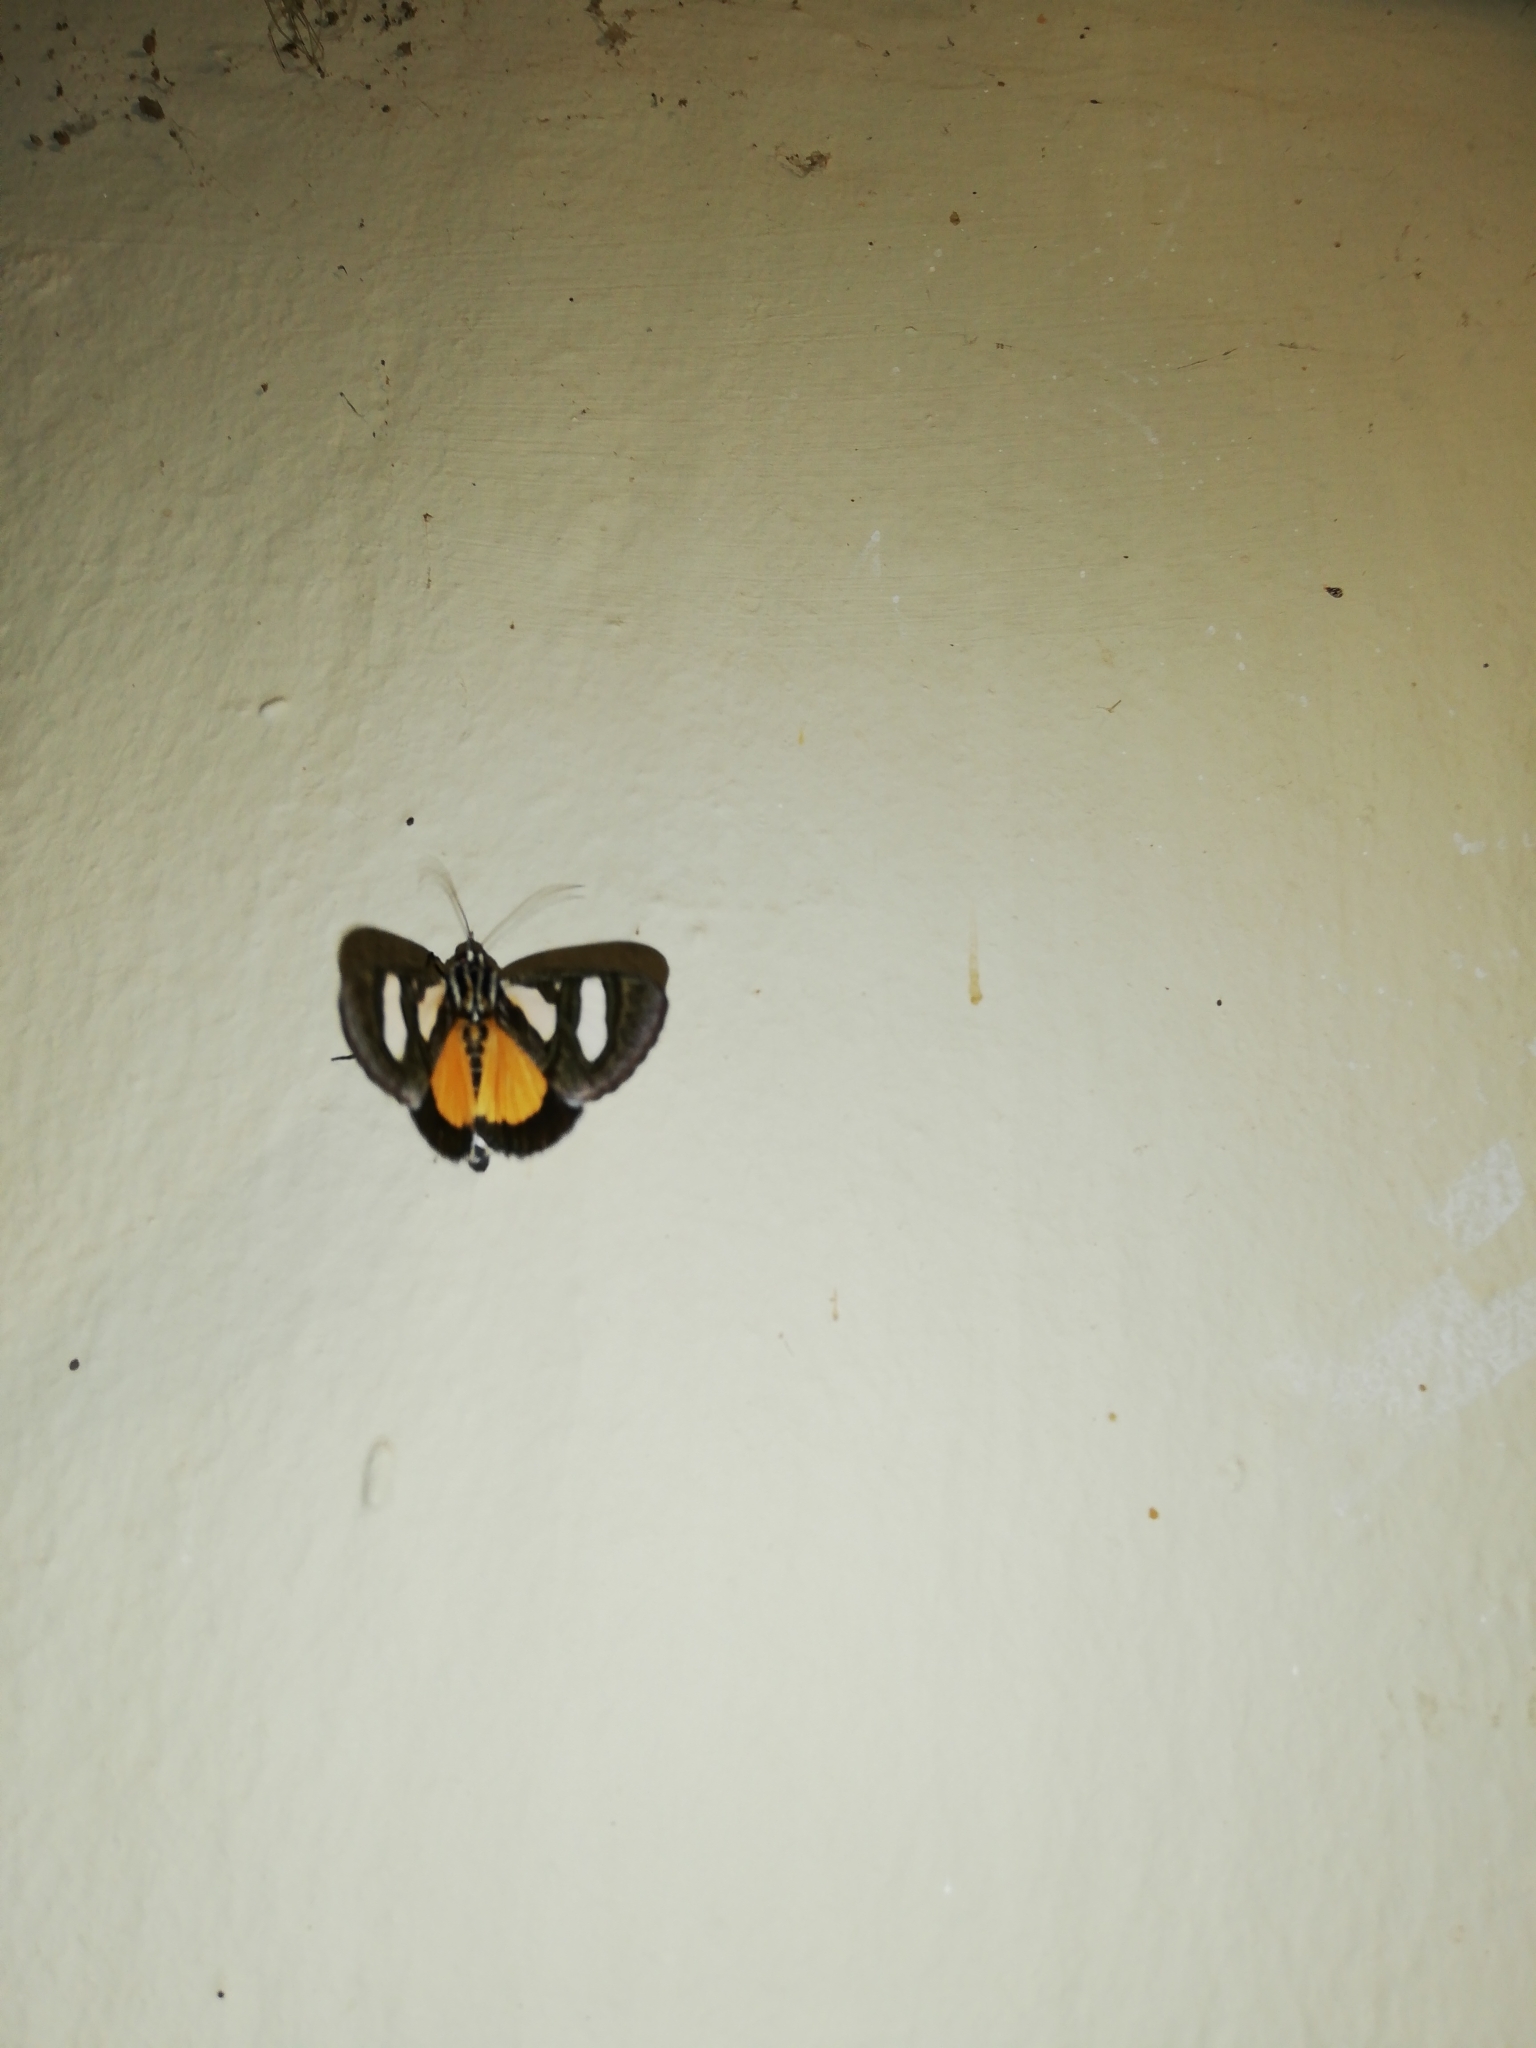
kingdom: Animalia
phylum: Arthropoda
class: Insecta
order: Lepidoptera
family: Noctuidae
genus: Agoma
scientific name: Agoma trimenii
